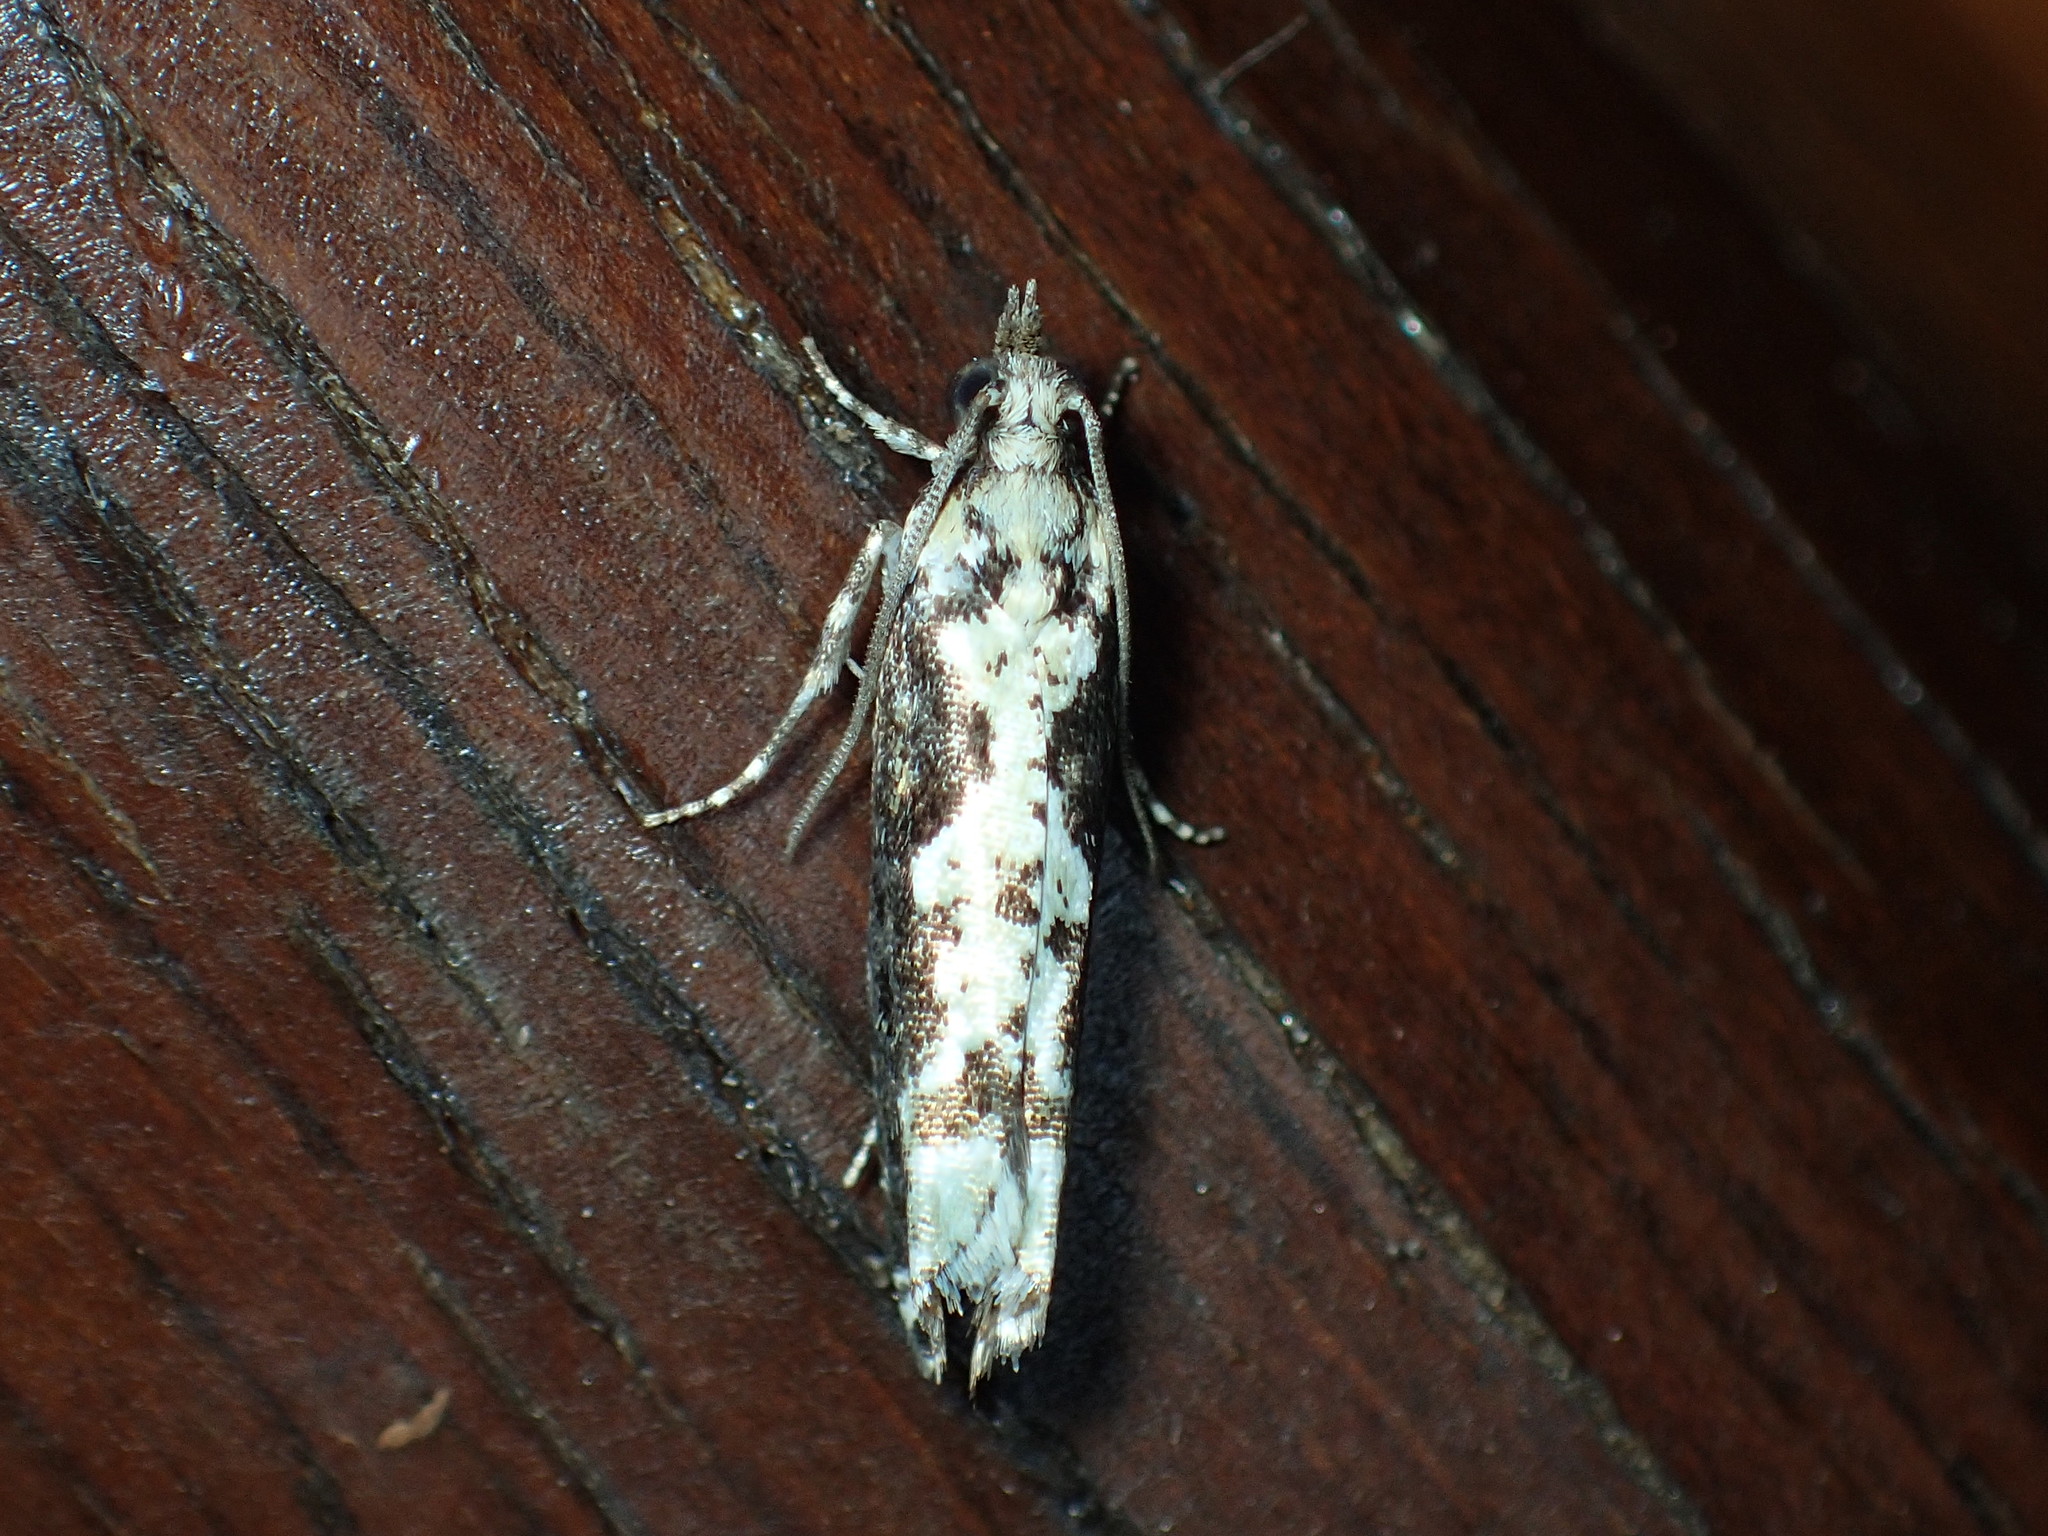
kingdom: Animalia
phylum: Arthropoda
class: Insecta
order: Lepidoptera
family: Tortricidae
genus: Chimoptesis
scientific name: Chimoptesis pennsylvaniana
